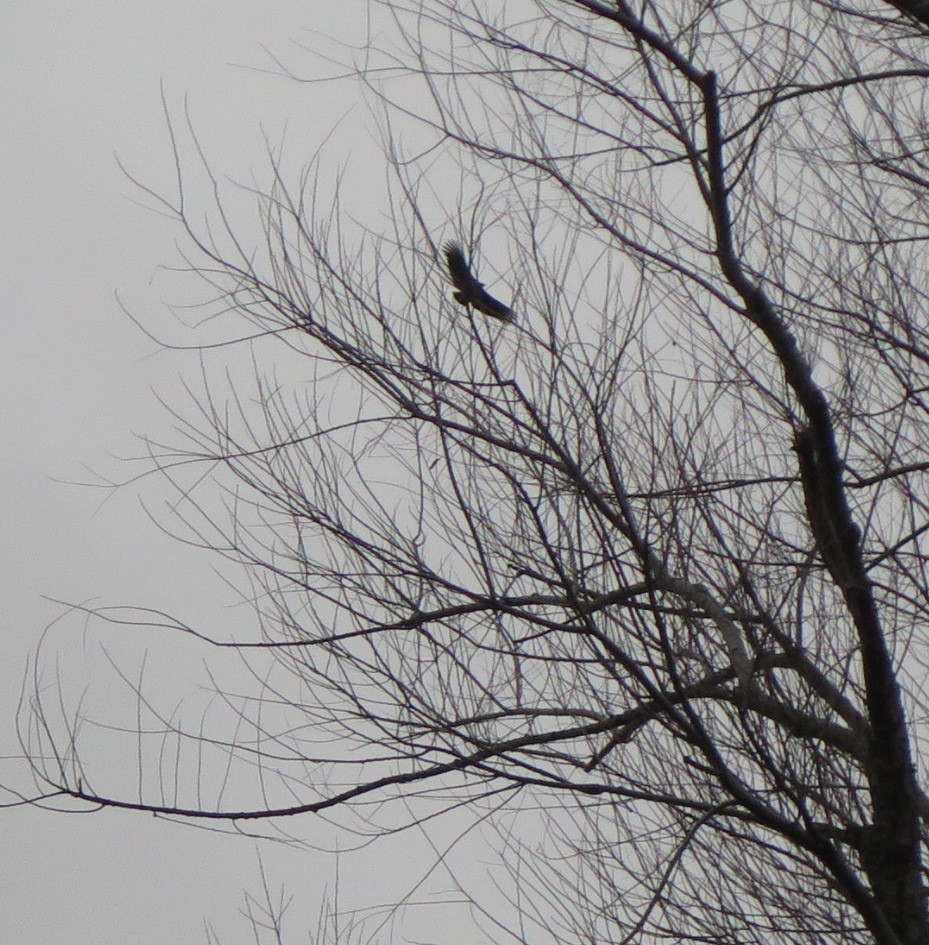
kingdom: Animalia
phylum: Chordata
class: Aves
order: Accipitriformes
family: Cathartidae
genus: Coragyps
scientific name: Coragyps atratus
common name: Black vulture
